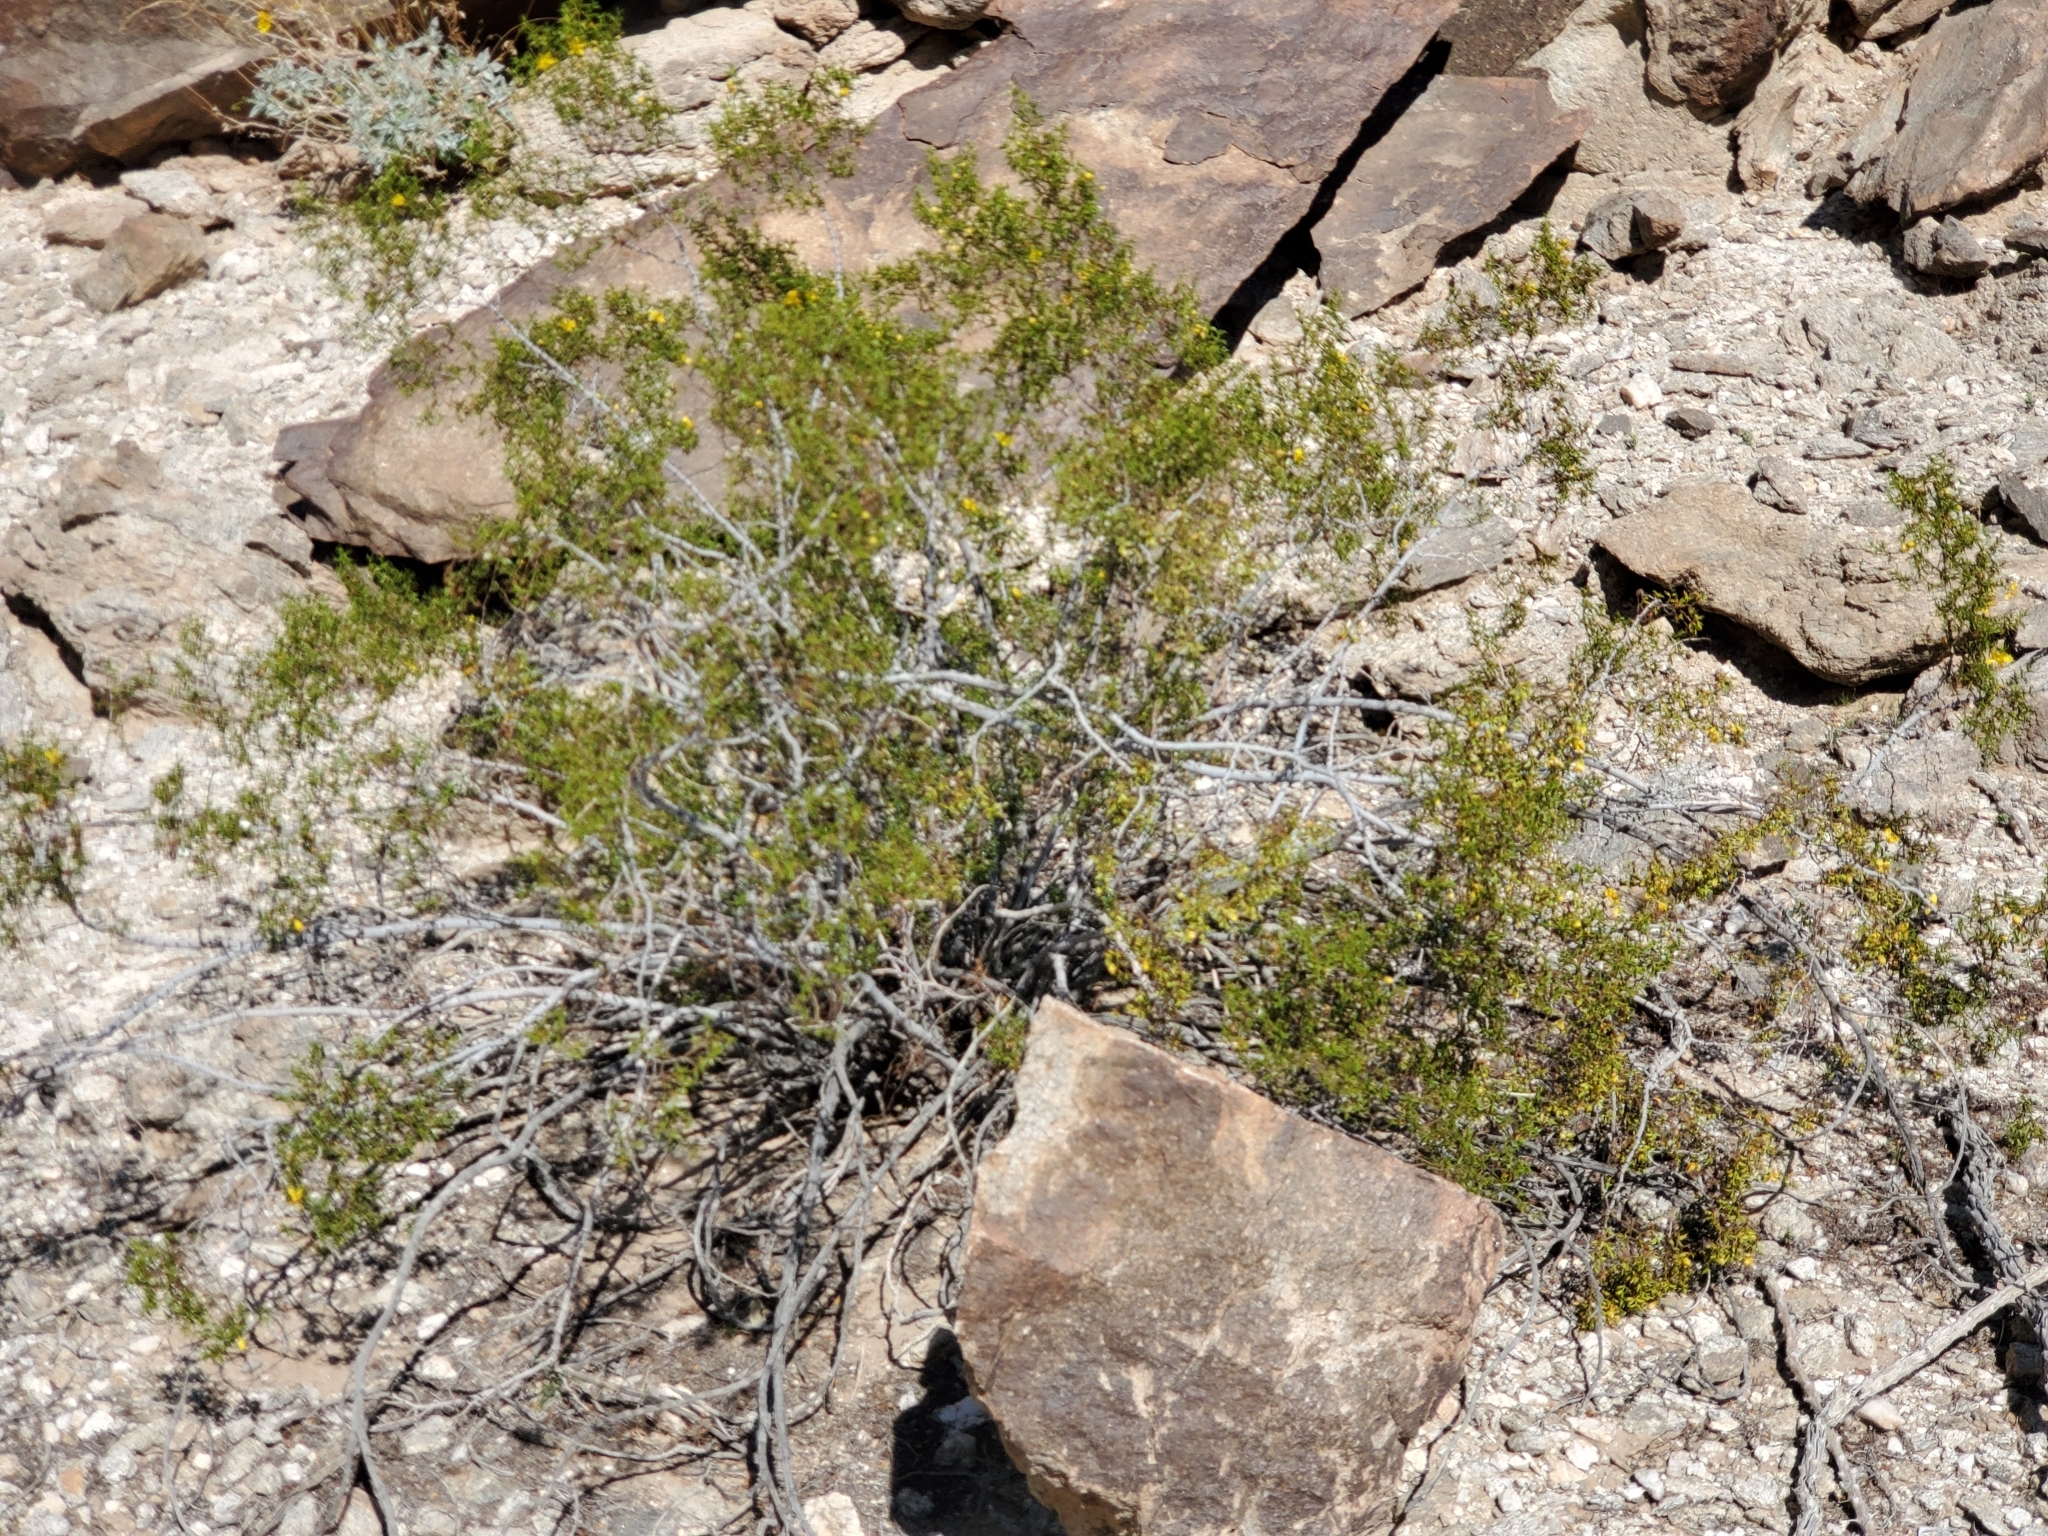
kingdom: Plantae
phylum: Tracheophyta
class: Magnoliopsida
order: Zygophyllales
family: Zygophyllaceae
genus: Larrea
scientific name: Larrea tridentata
